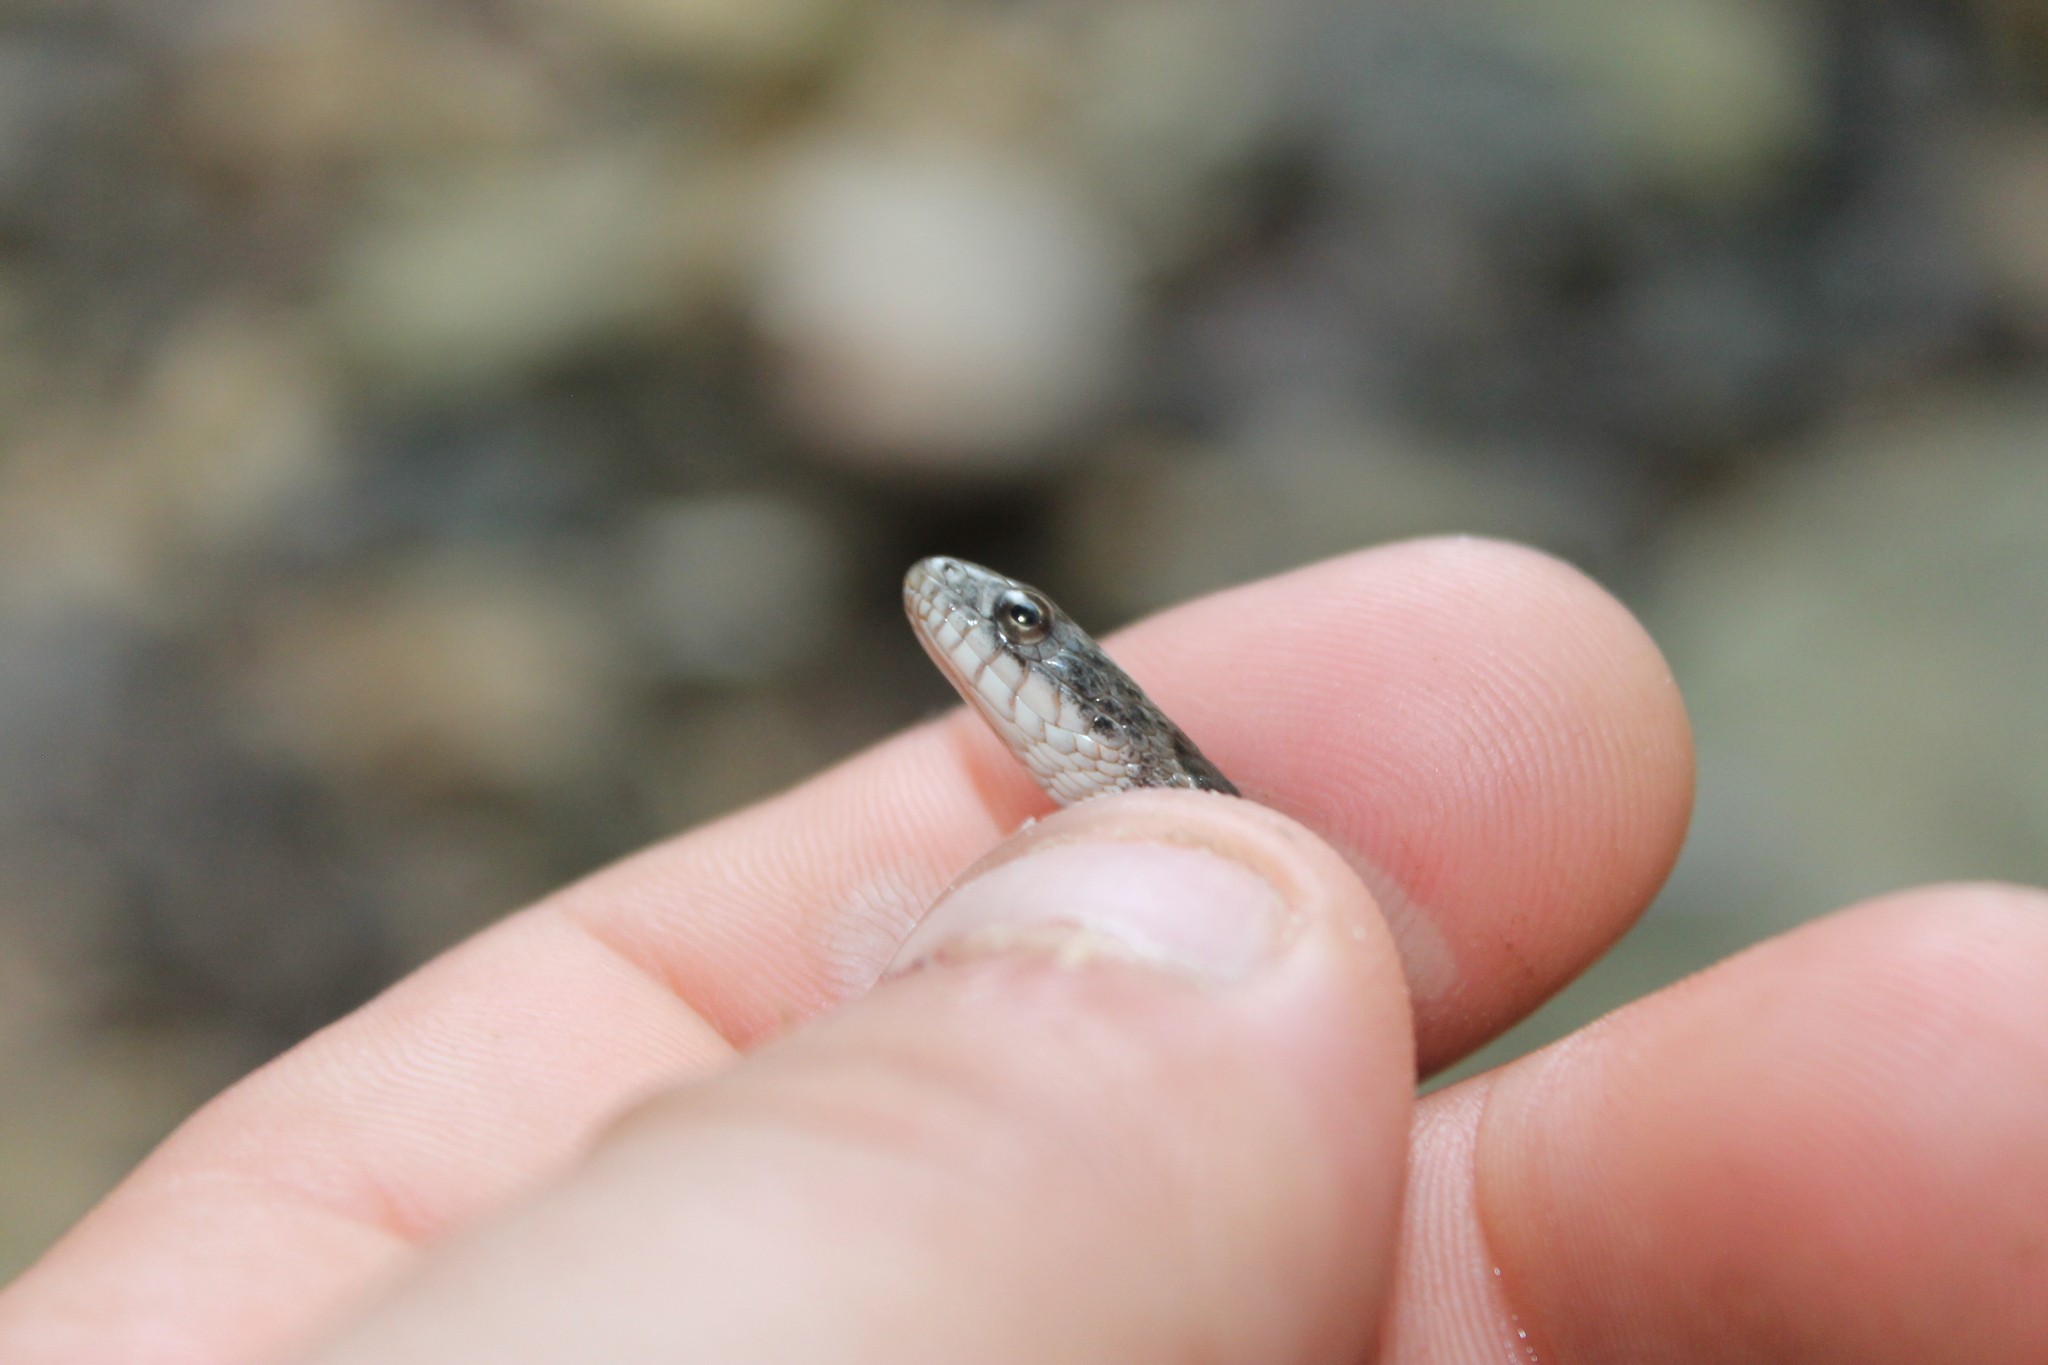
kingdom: Animalia
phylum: Chordata
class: Squamata
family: Colubridae
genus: Nerodia
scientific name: Nerodia sipedon
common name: Northern water snake
